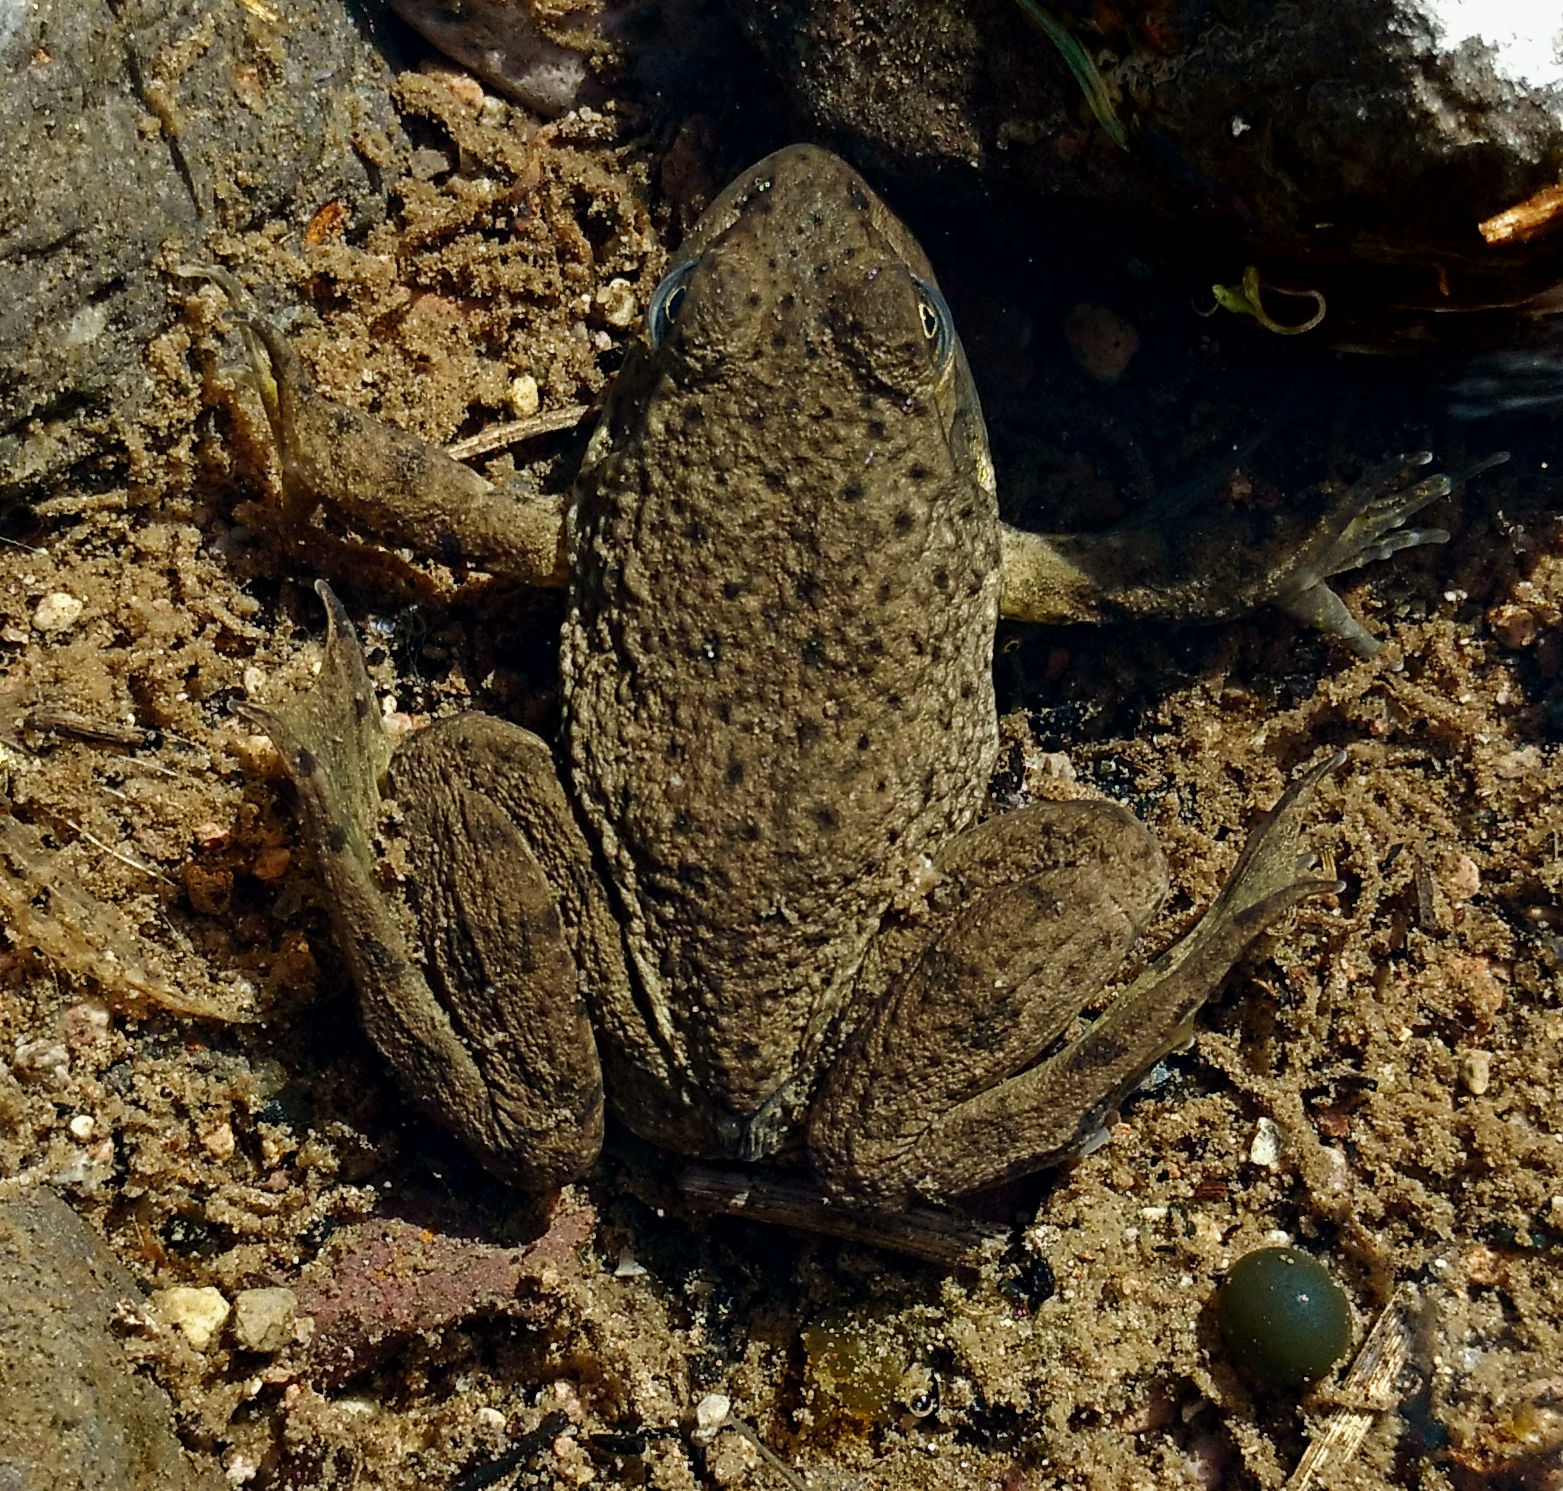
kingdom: Animalia
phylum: Chordata
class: Amphibia
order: Anura
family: Ranidae
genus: Lithobates
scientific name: Lithobates catesbeianus
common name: American bullfrog
